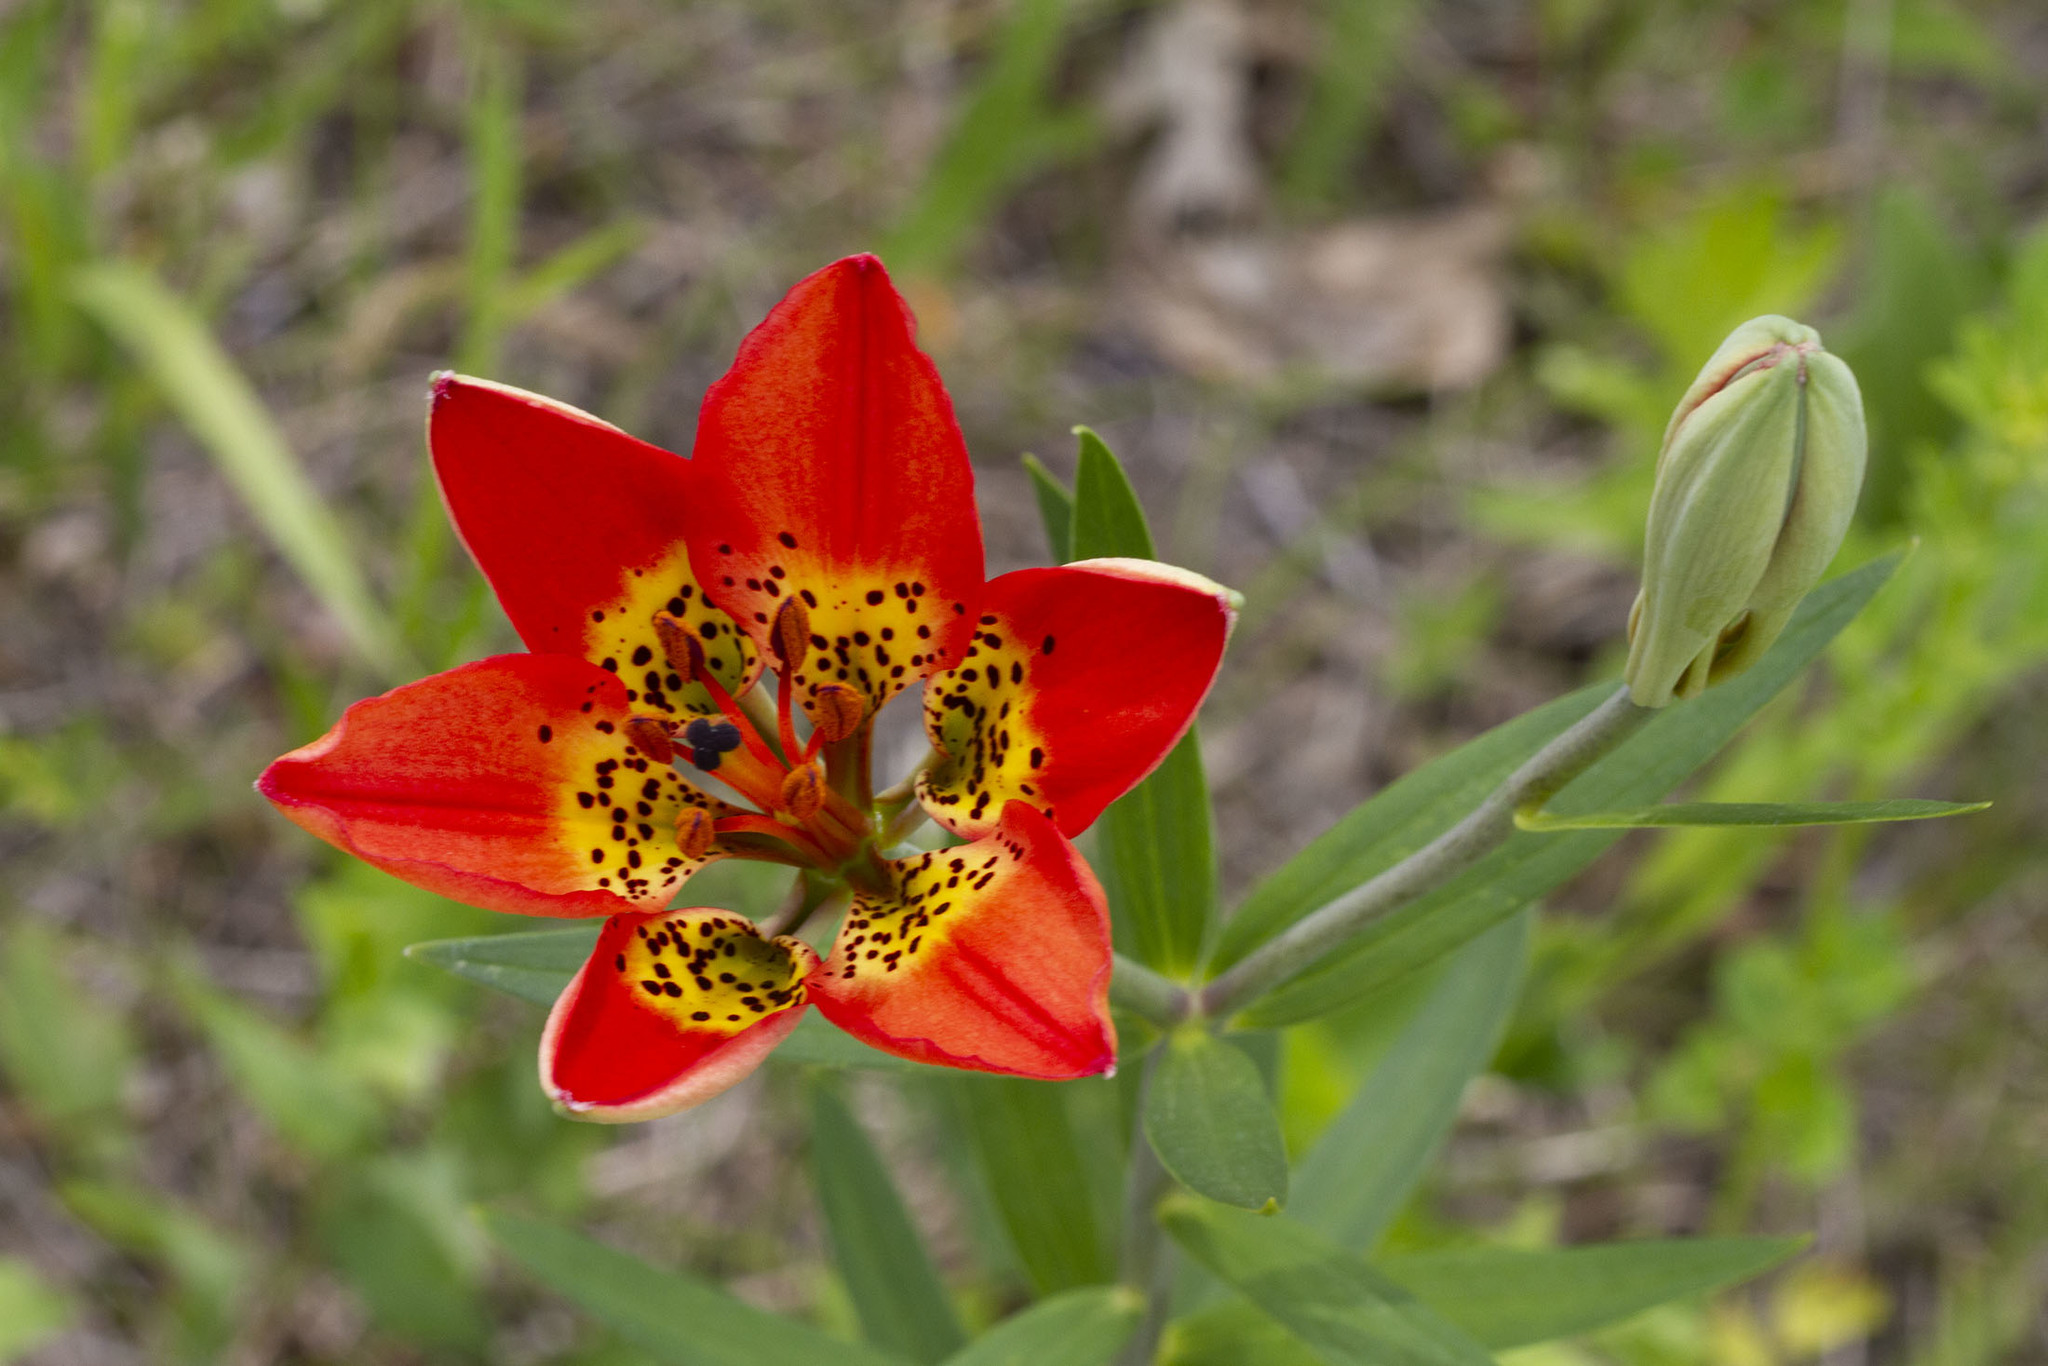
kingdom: Plantae
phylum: Tracheophyta
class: Liliopsida
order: Liliales
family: Liliaceae
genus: Lilium
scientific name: Lilium philadelphicum
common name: Red lily
